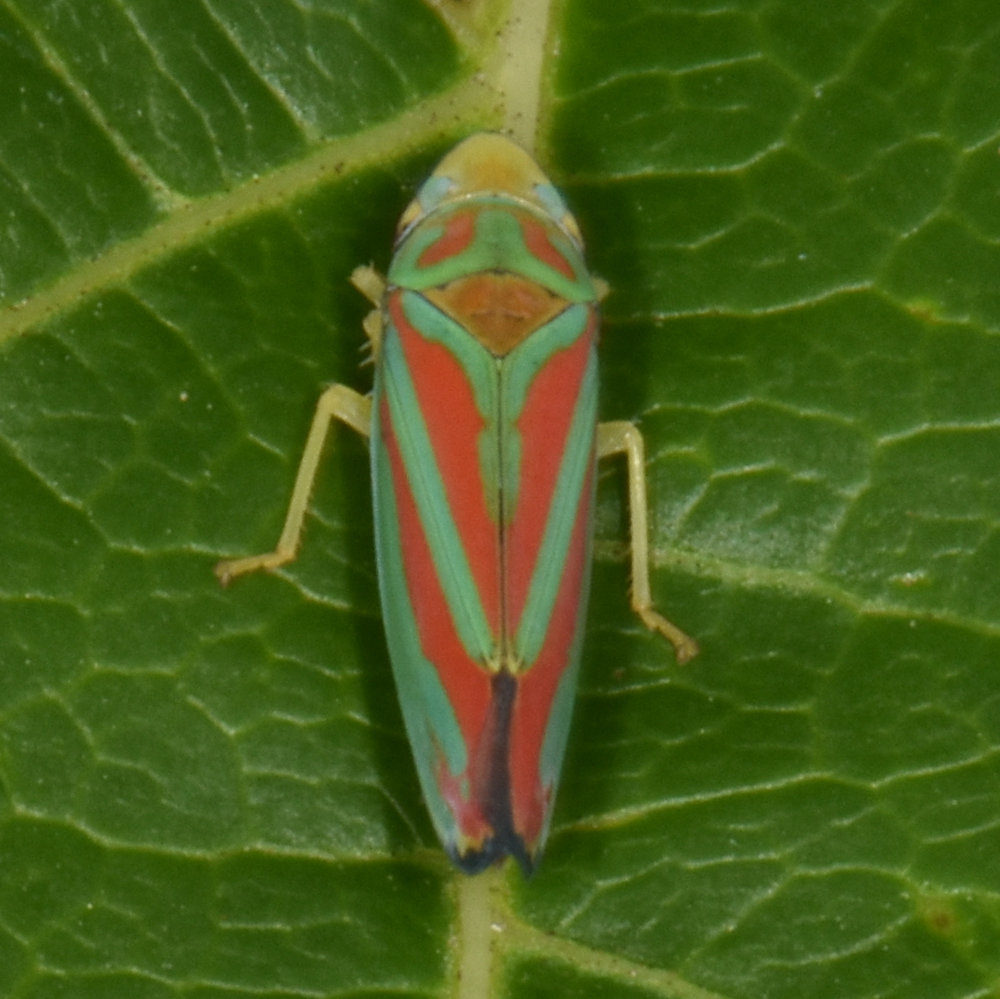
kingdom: Animalia
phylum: Arthropoda
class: Insecta
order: Hemiptera
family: Cicadellidae
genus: Graphocephala
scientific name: Graphocephala coccinea
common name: Candy-striped leafhopper
